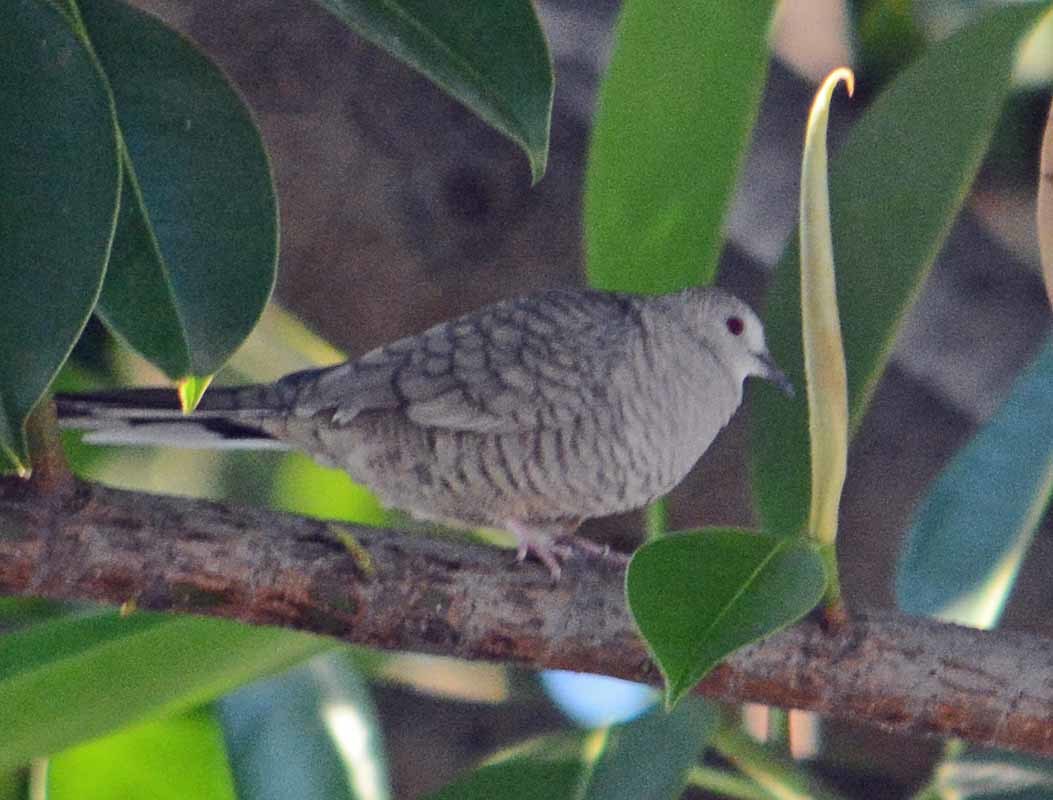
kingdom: Animalia
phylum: Chordata
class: Aves
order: Columbiformes
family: Columbidae
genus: Columbina
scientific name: Columbina inca
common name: Inca dove
